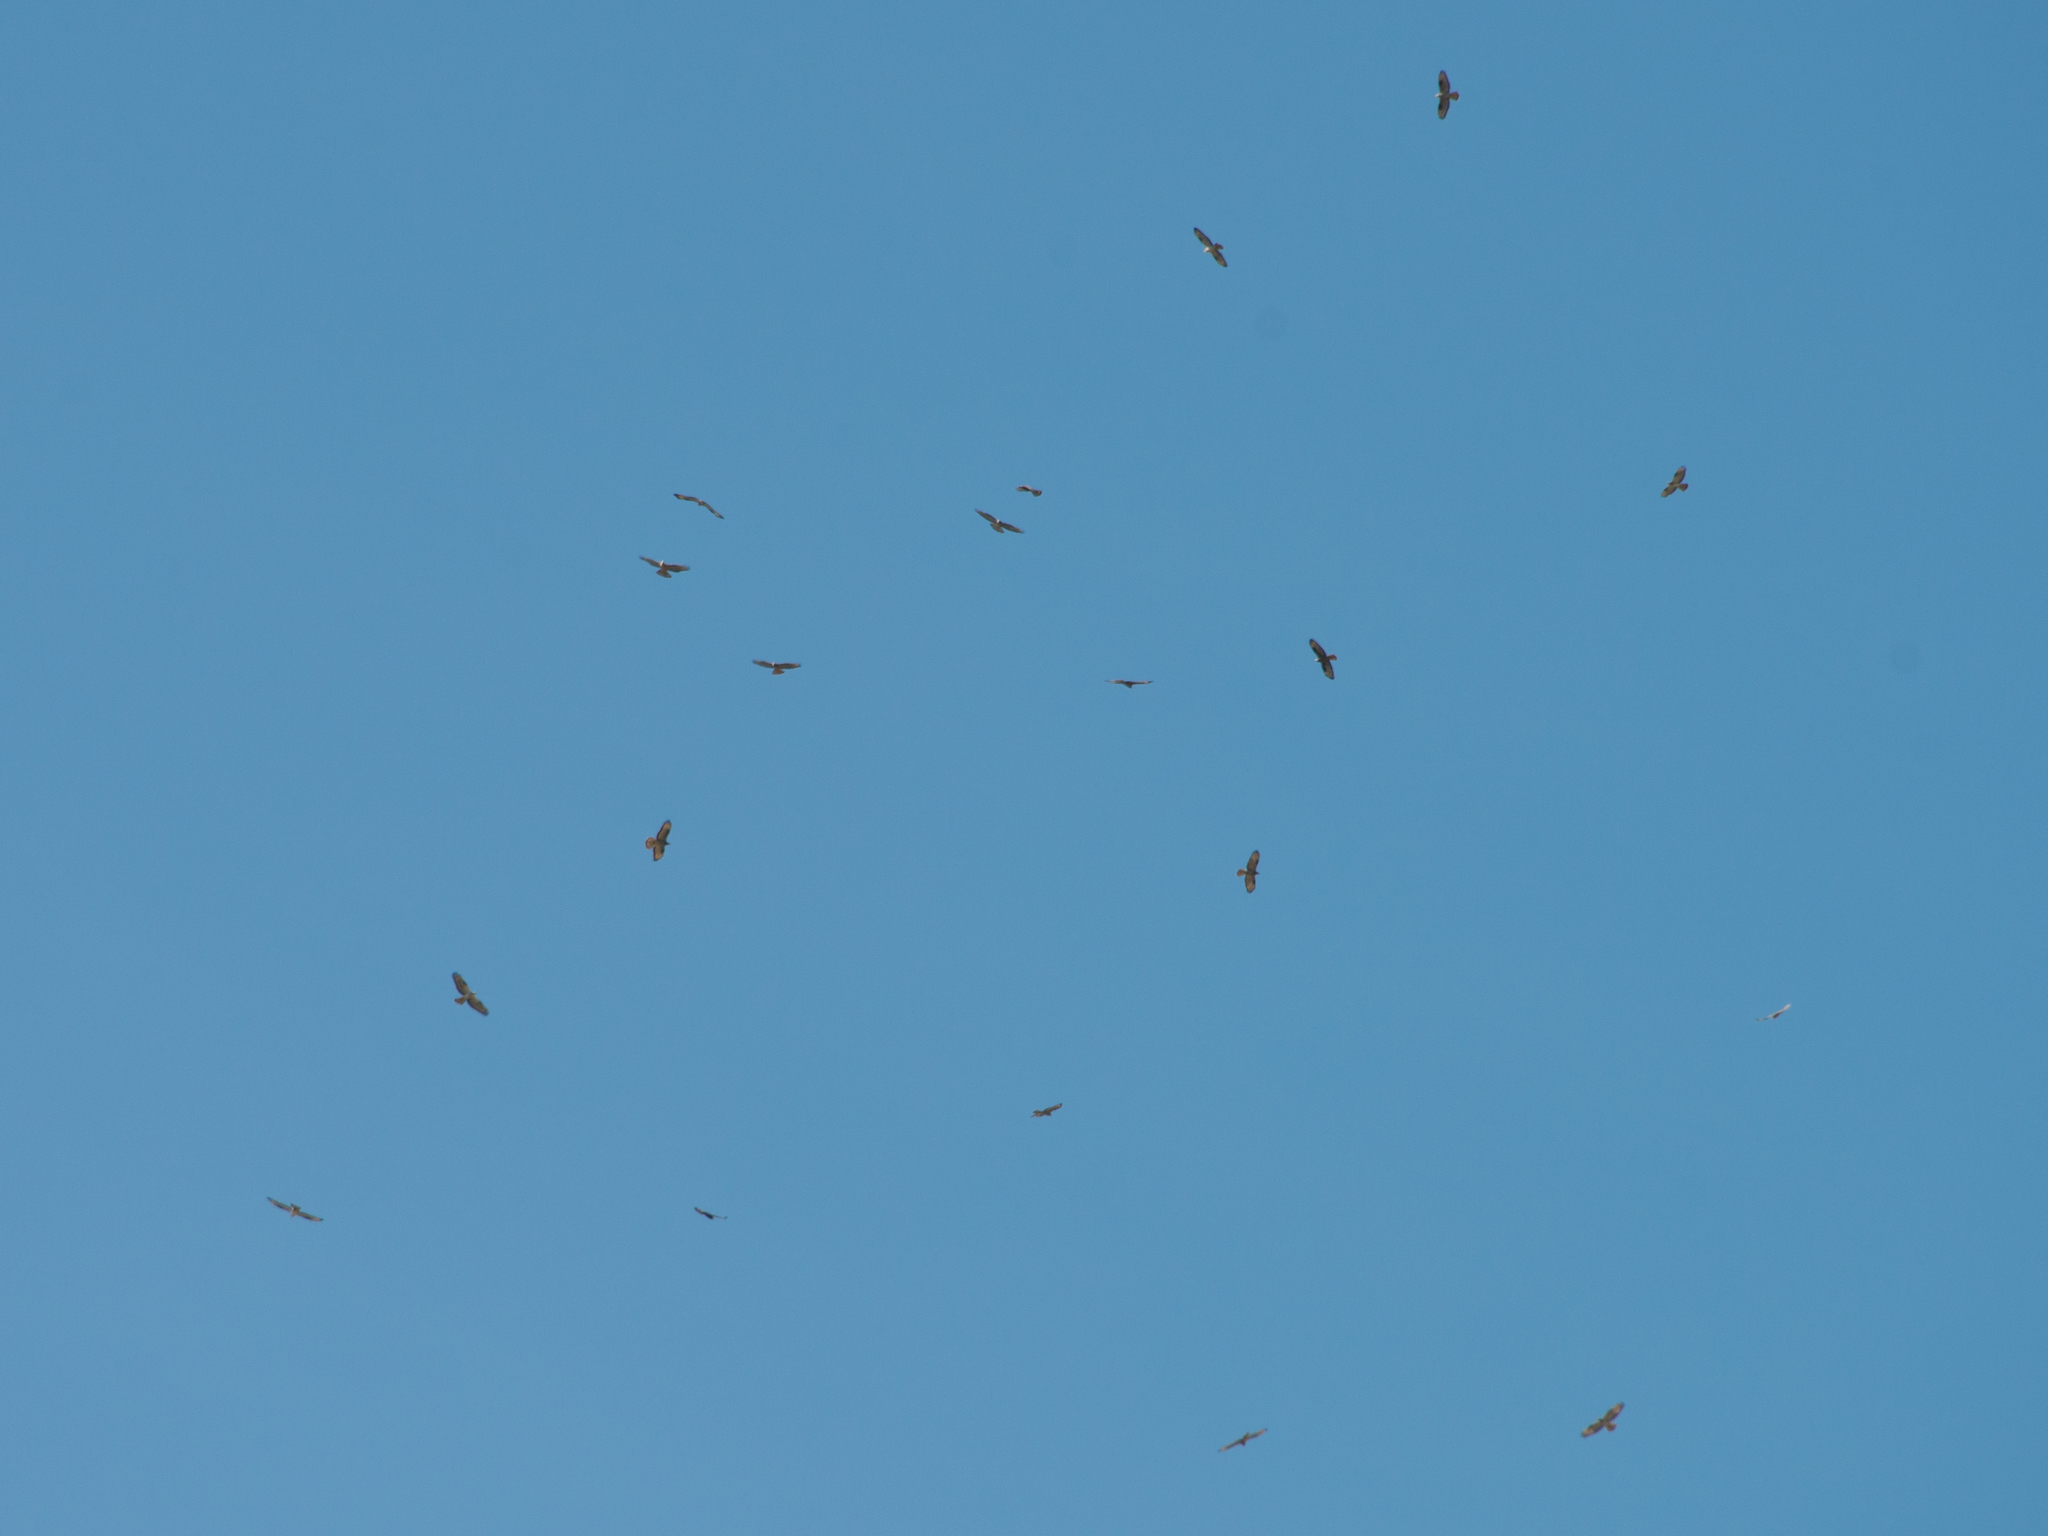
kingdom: Animalia
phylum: Chordata
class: Aves
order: Accipitriformes
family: Accipitridae
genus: Pernis
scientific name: Pernis apivorus
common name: European honey buzzard
